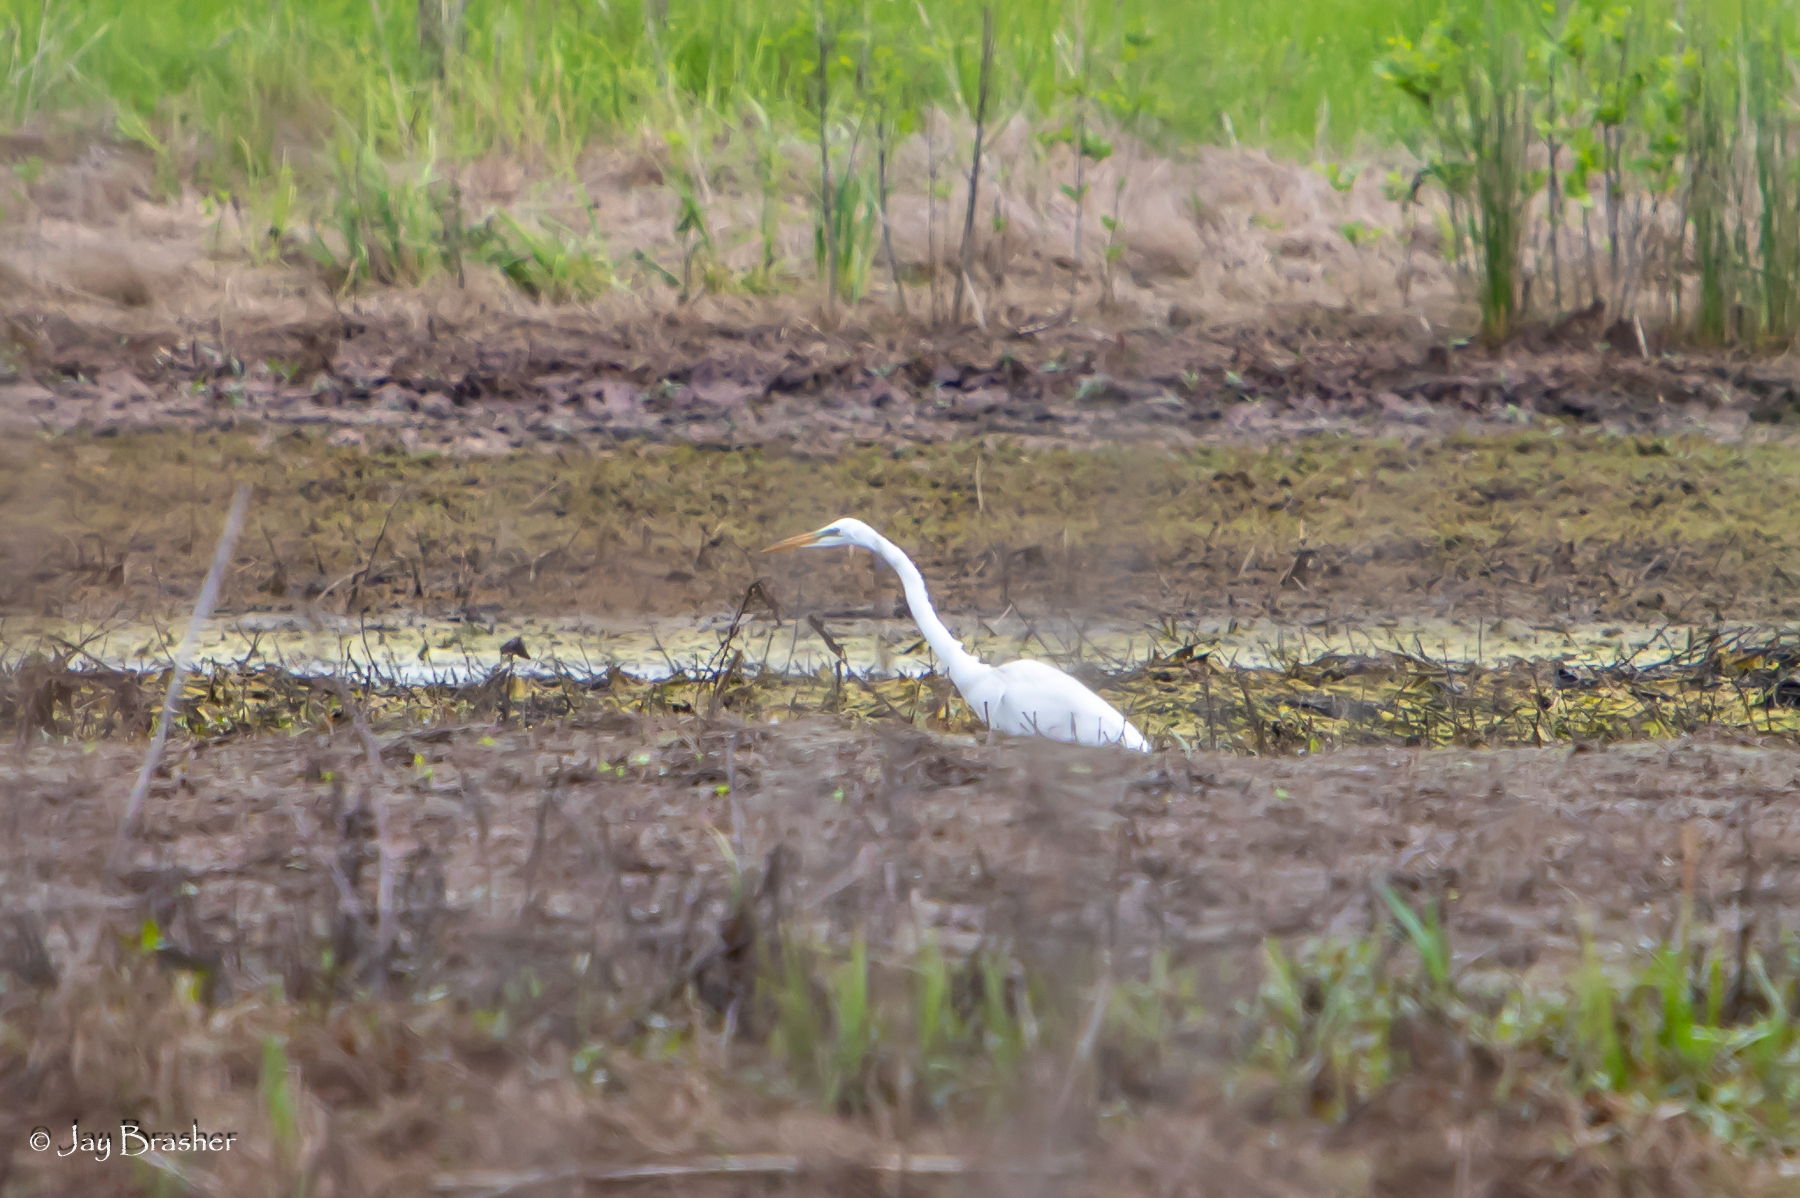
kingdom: Animalia
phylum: Chordata
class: Aves
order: Pelecaniformes
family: Ardeidae
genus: Ardea
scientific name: Ardea alba
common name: Great egret
